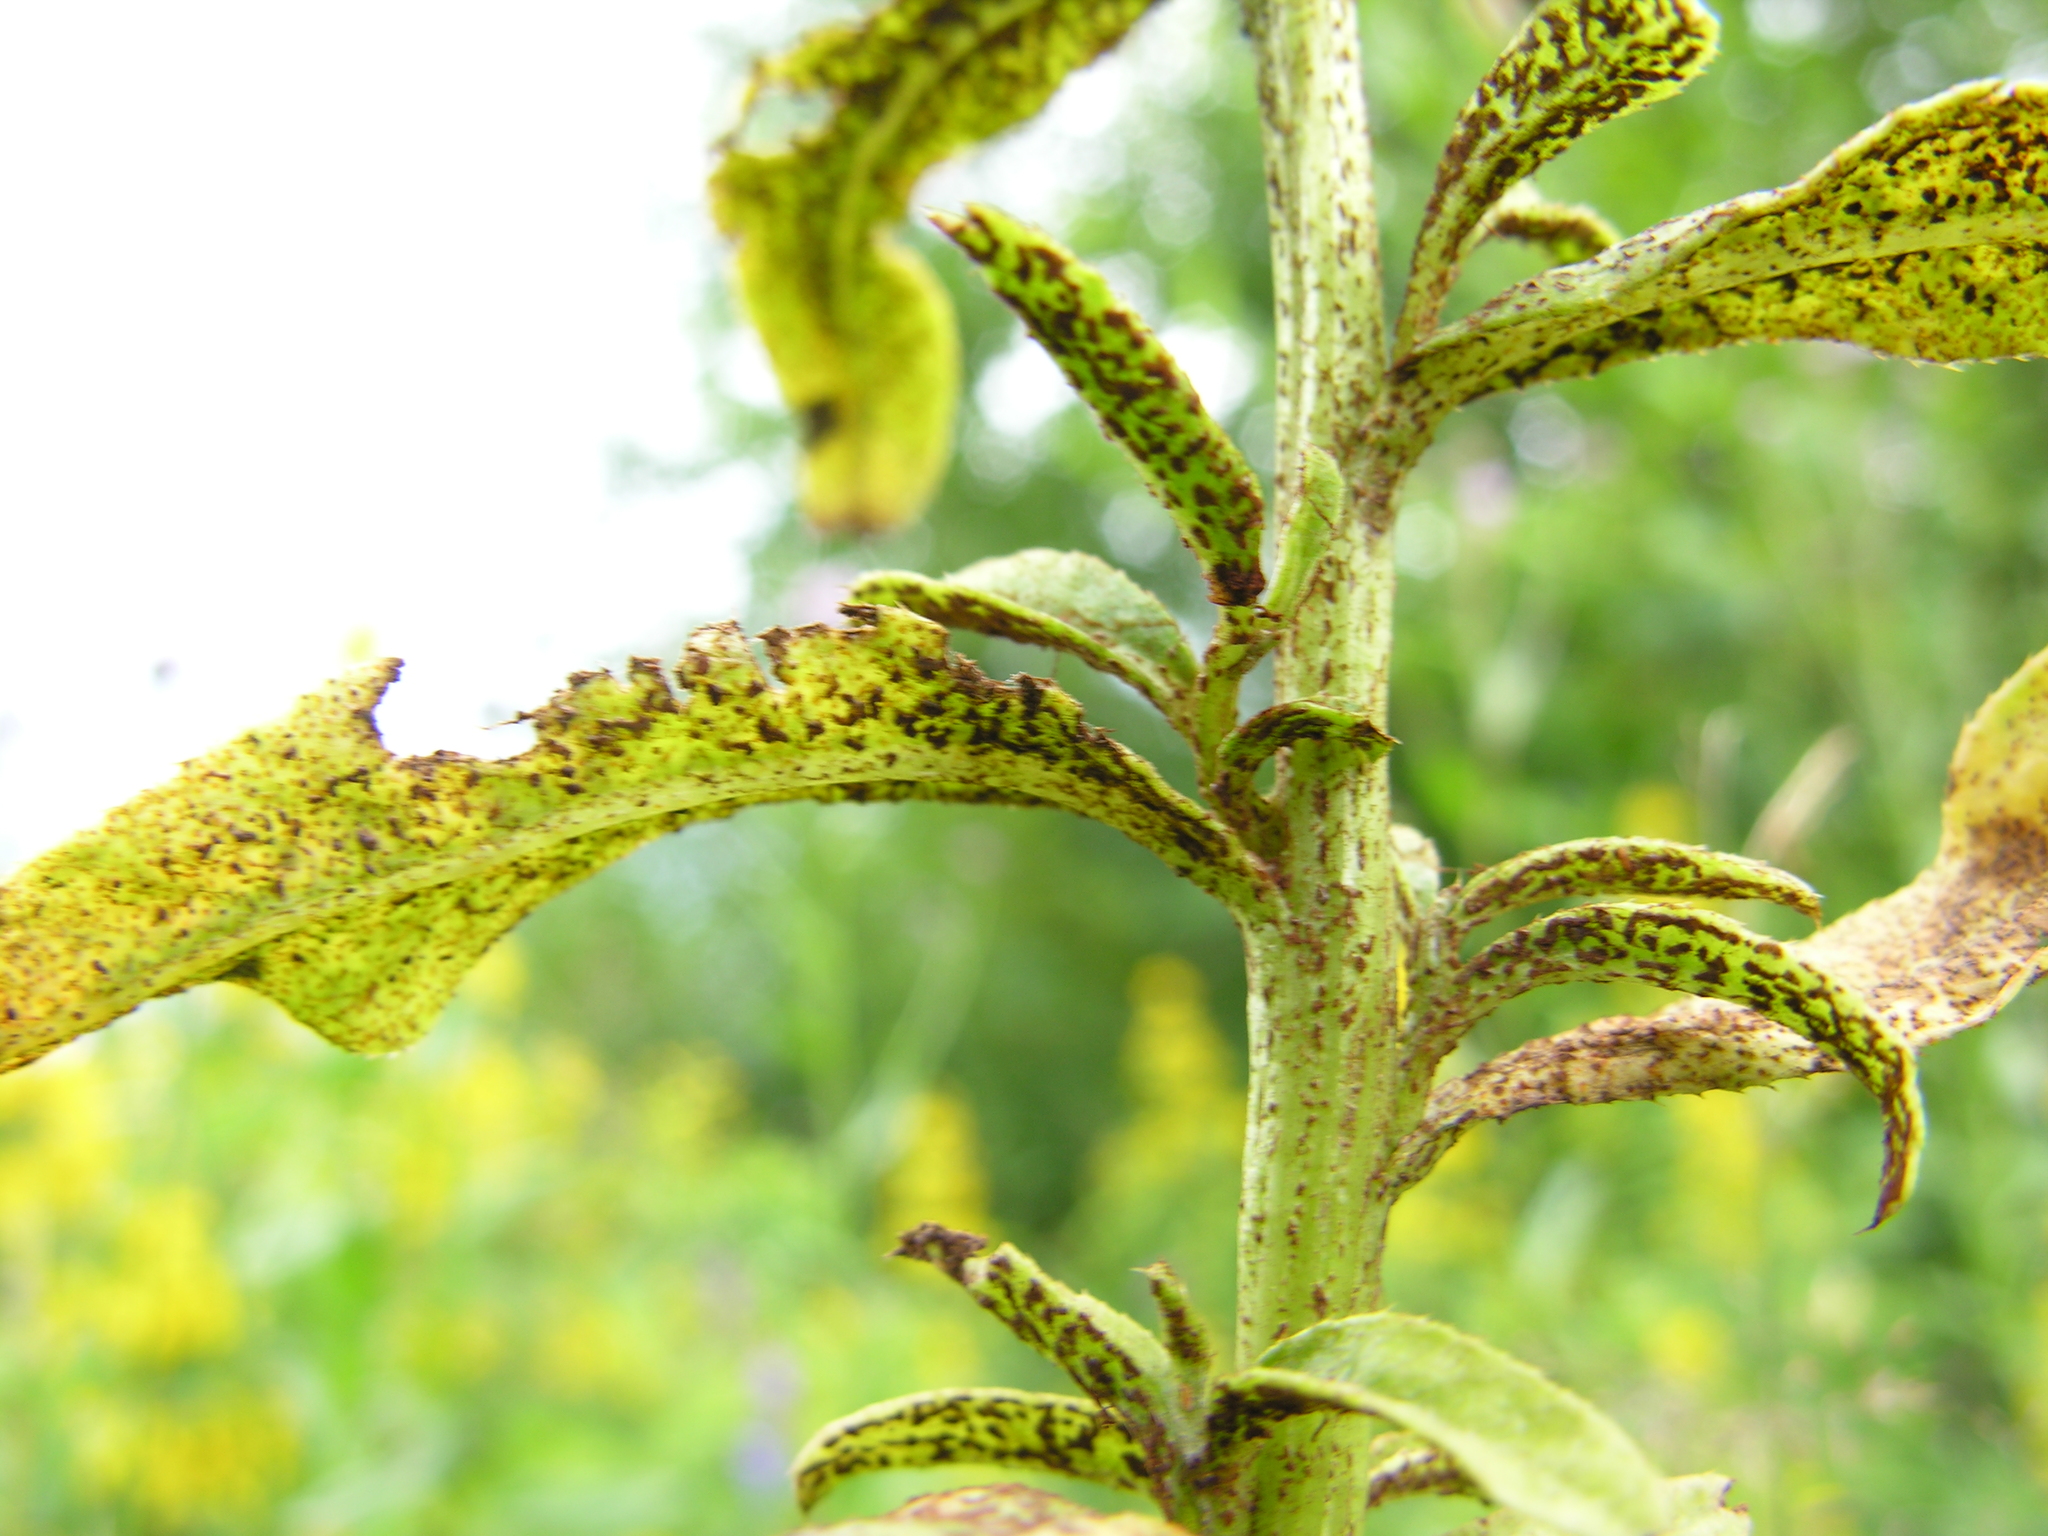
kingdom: Fungi
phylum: Basidiomycota
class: Pucciniomycetes
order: Pucciniales
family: Pucciniaceae
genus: Puccinia
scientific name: Puccinia suaveolens
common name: Thistle rust
